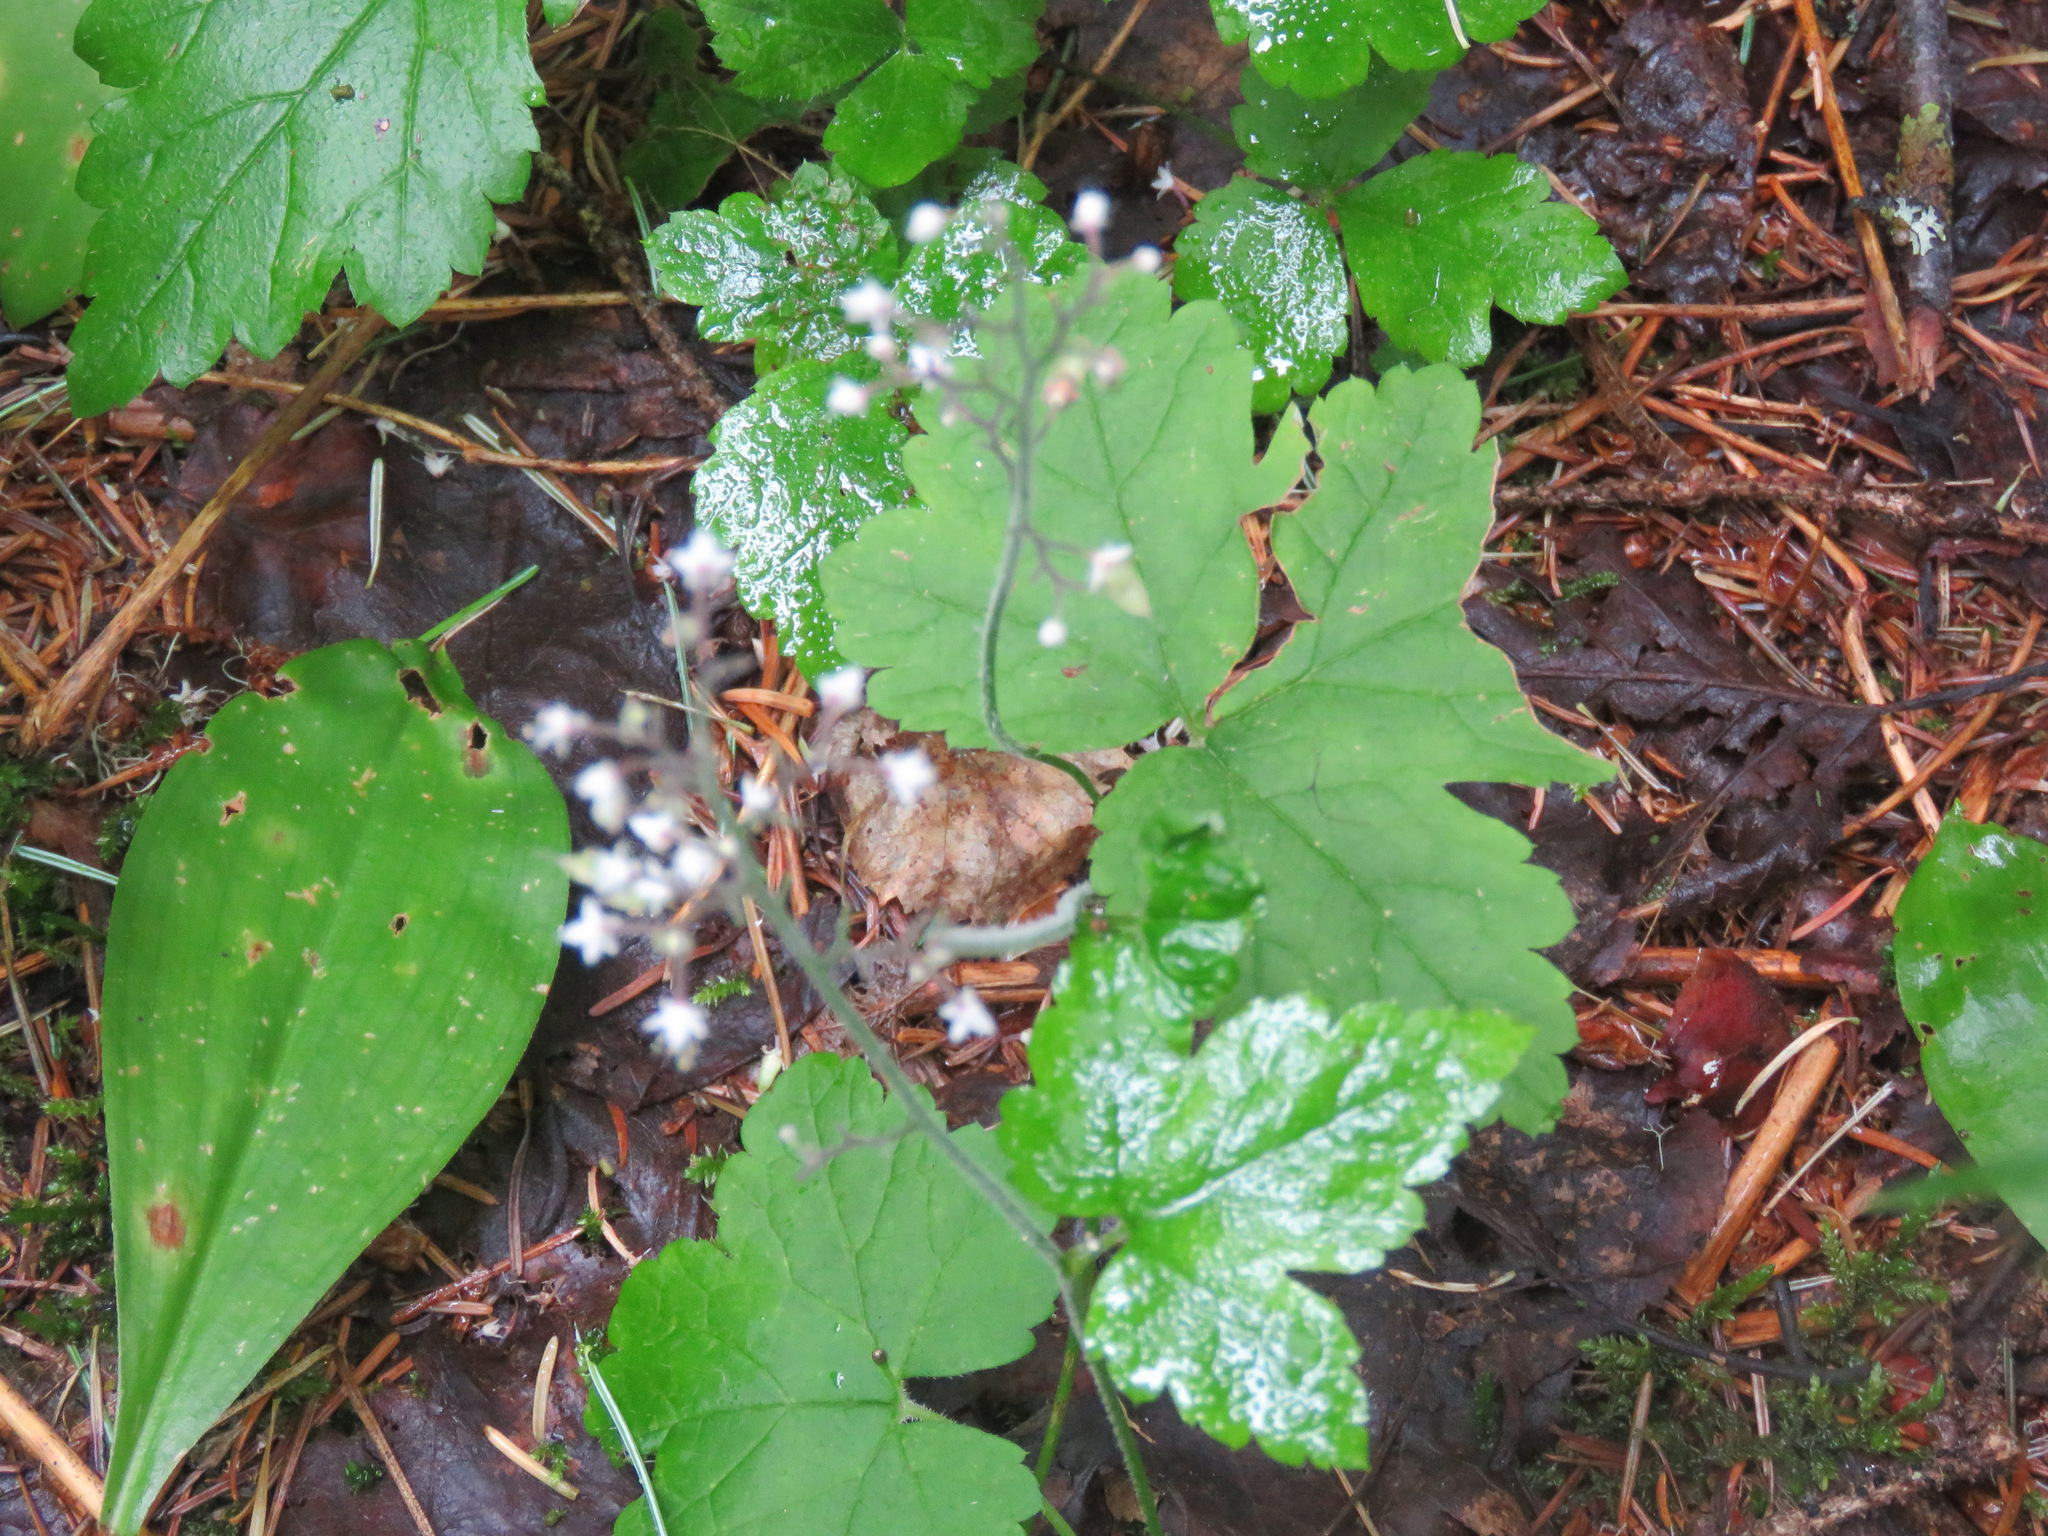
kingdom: Plantae
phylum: Tracheophyta
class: Magnoliopsida
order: Saxifragales
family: Saxifragaceae
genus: Tiarella
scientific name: Tiarella trifoliata
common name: Sugar-scoop
